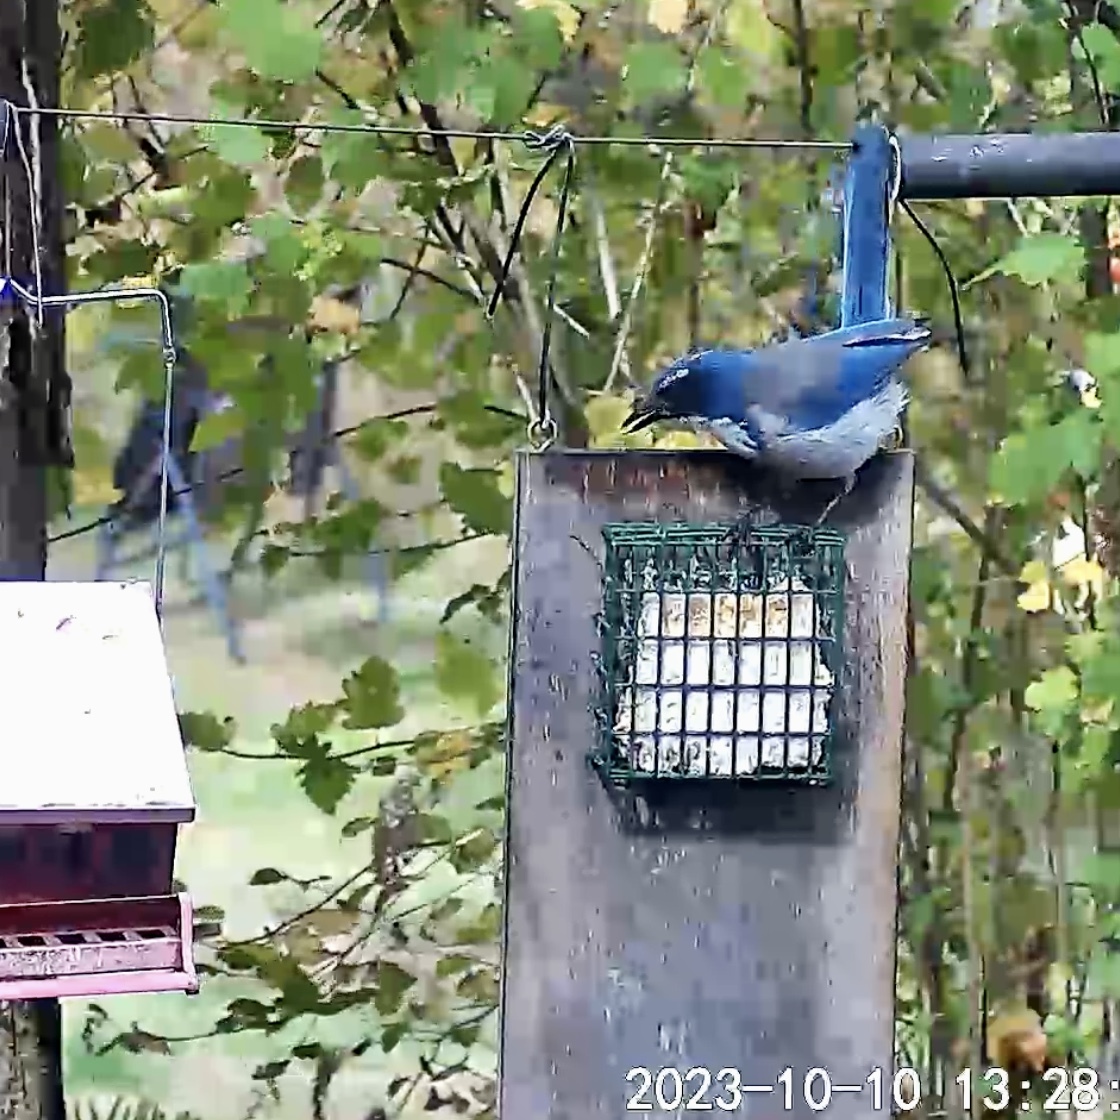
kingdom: Animalia
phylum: Chordata
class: Aves
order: Passeriformes
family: Corvidae
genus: Aphelocoma
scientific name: Aphelocoma californica
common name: California scrub-jay
